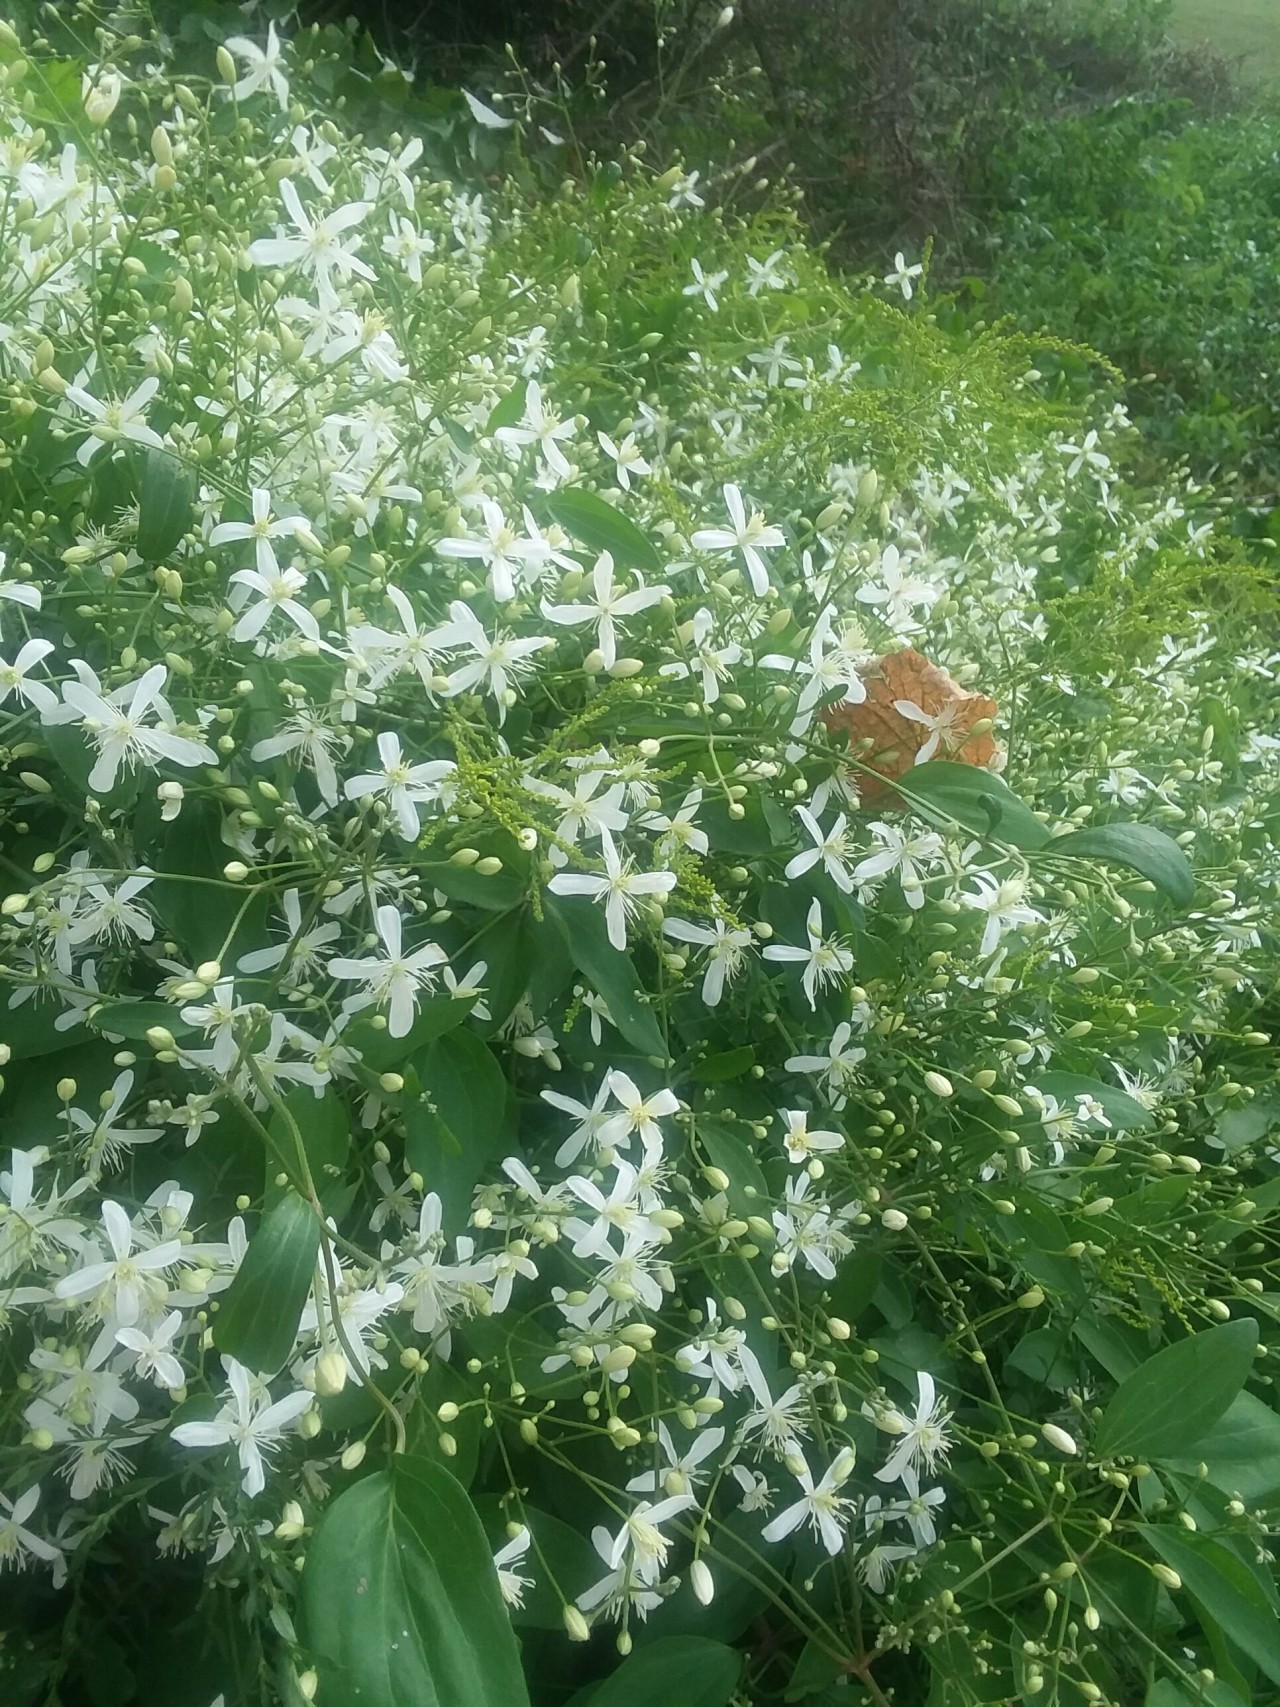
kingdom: Plantae
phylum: Tracheophyta
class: Magnoliopsida
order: Ranunculales
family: Ranunculaceae
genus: Clematis
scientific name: Clematis terniflora
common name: Sweet autumn clematis
